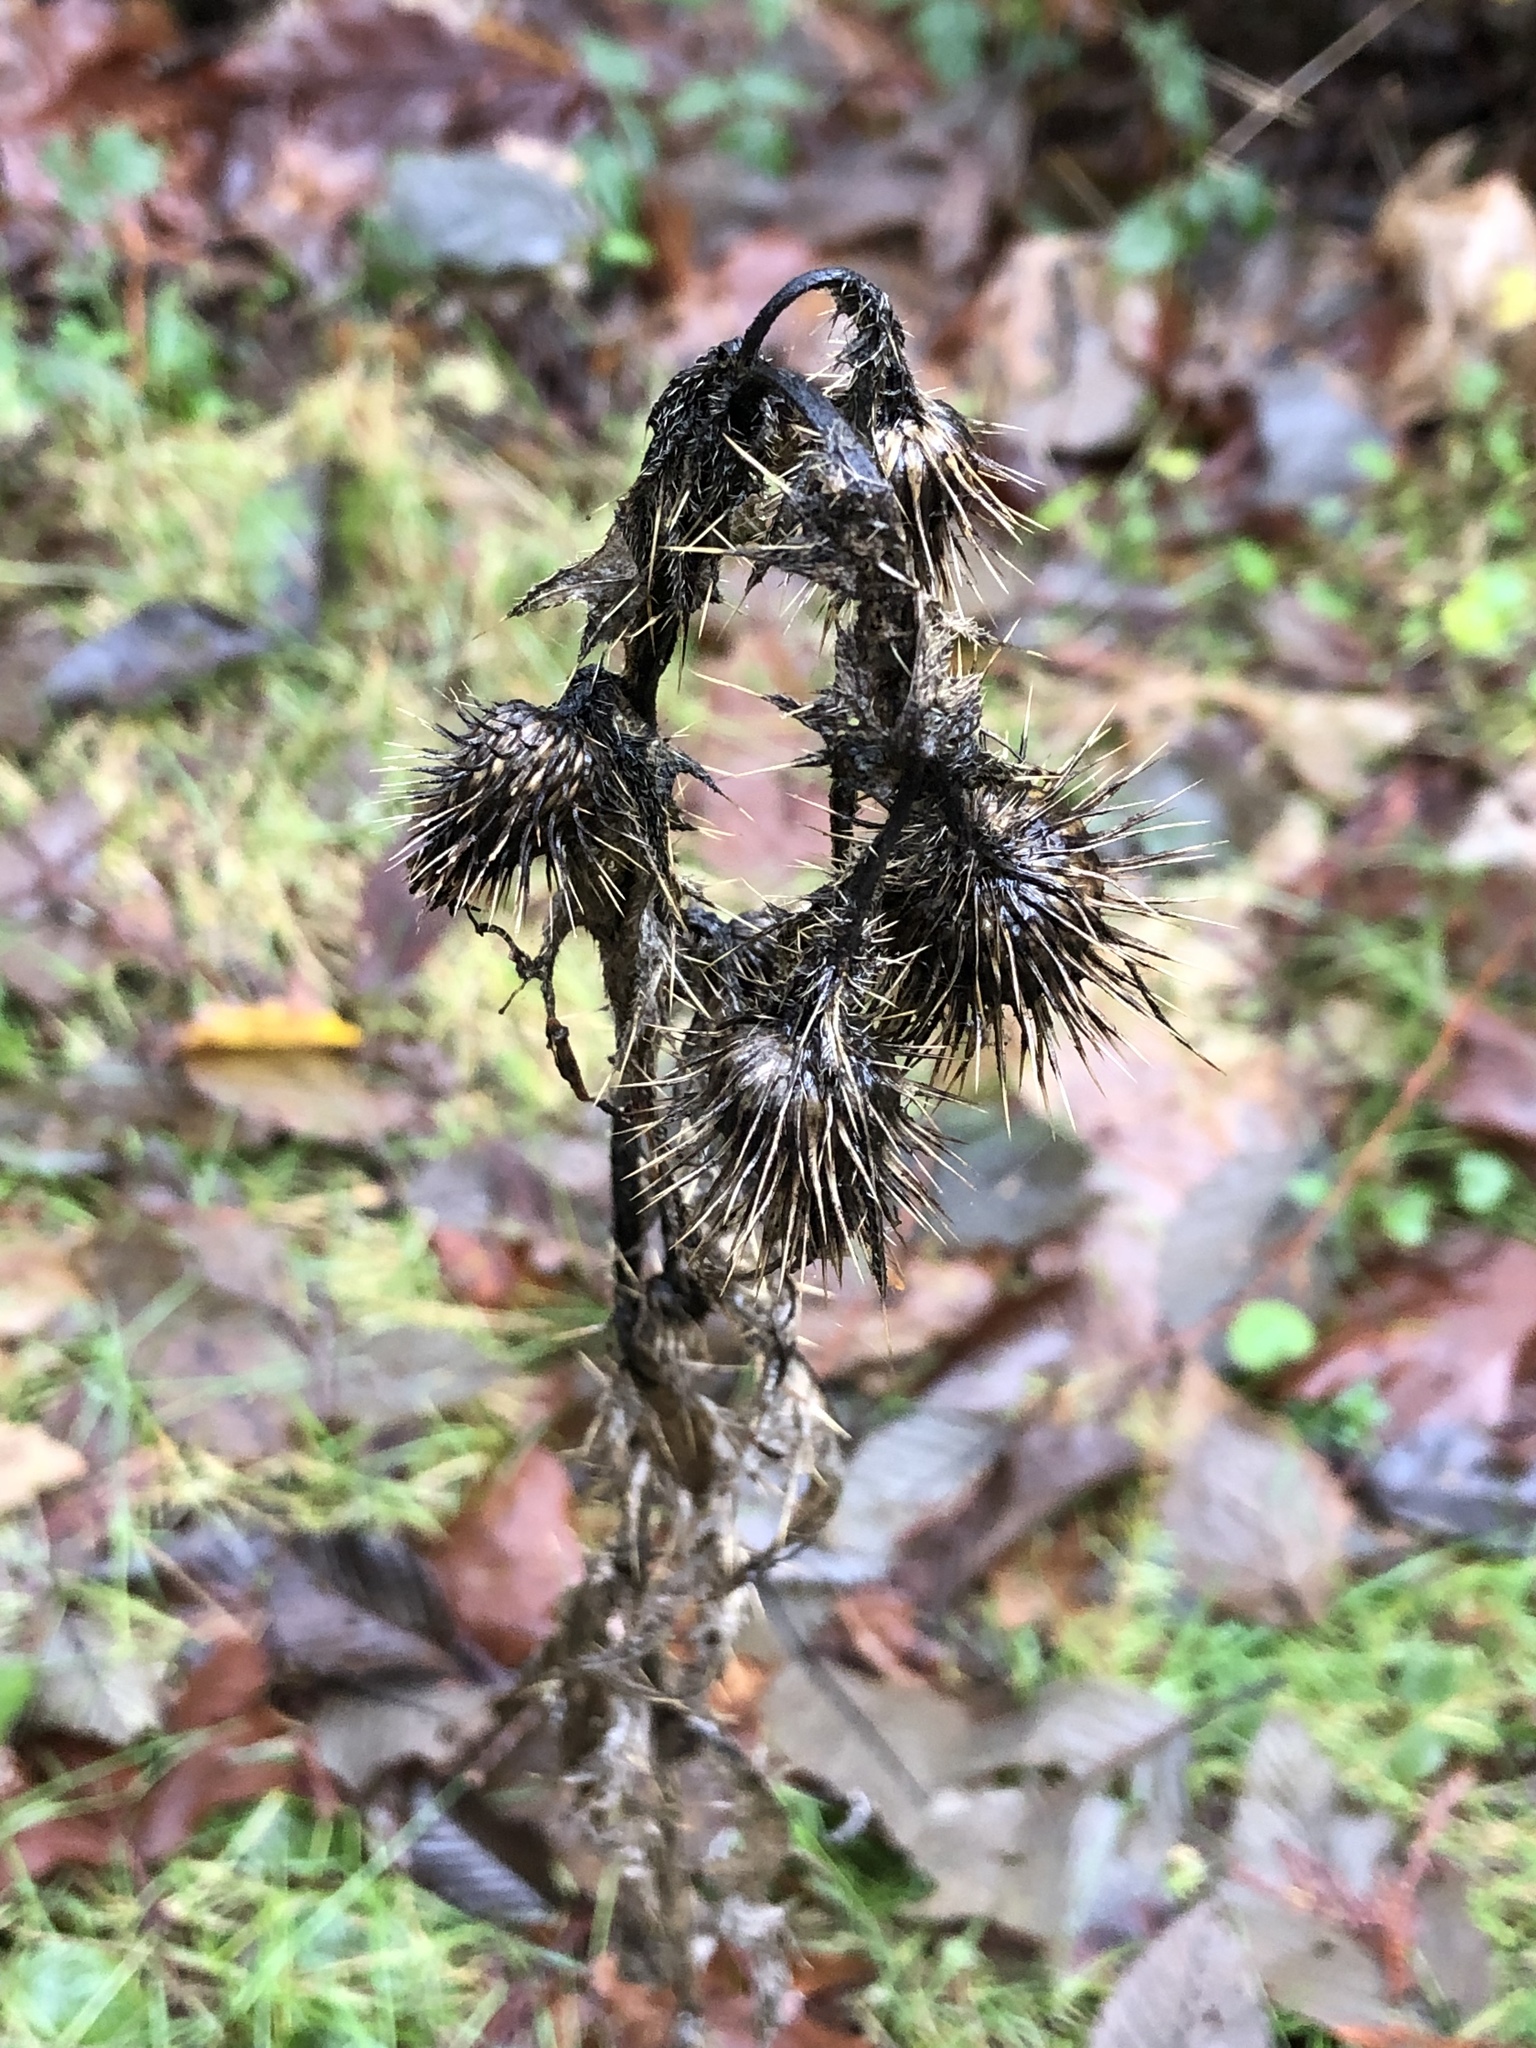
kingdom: Plantae
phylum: Tracheophyta
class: Magnoliopsida
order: Asterales
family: Asteraceae
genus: Cirsium
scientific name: Cirsium vulgare
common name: Bull thistle
